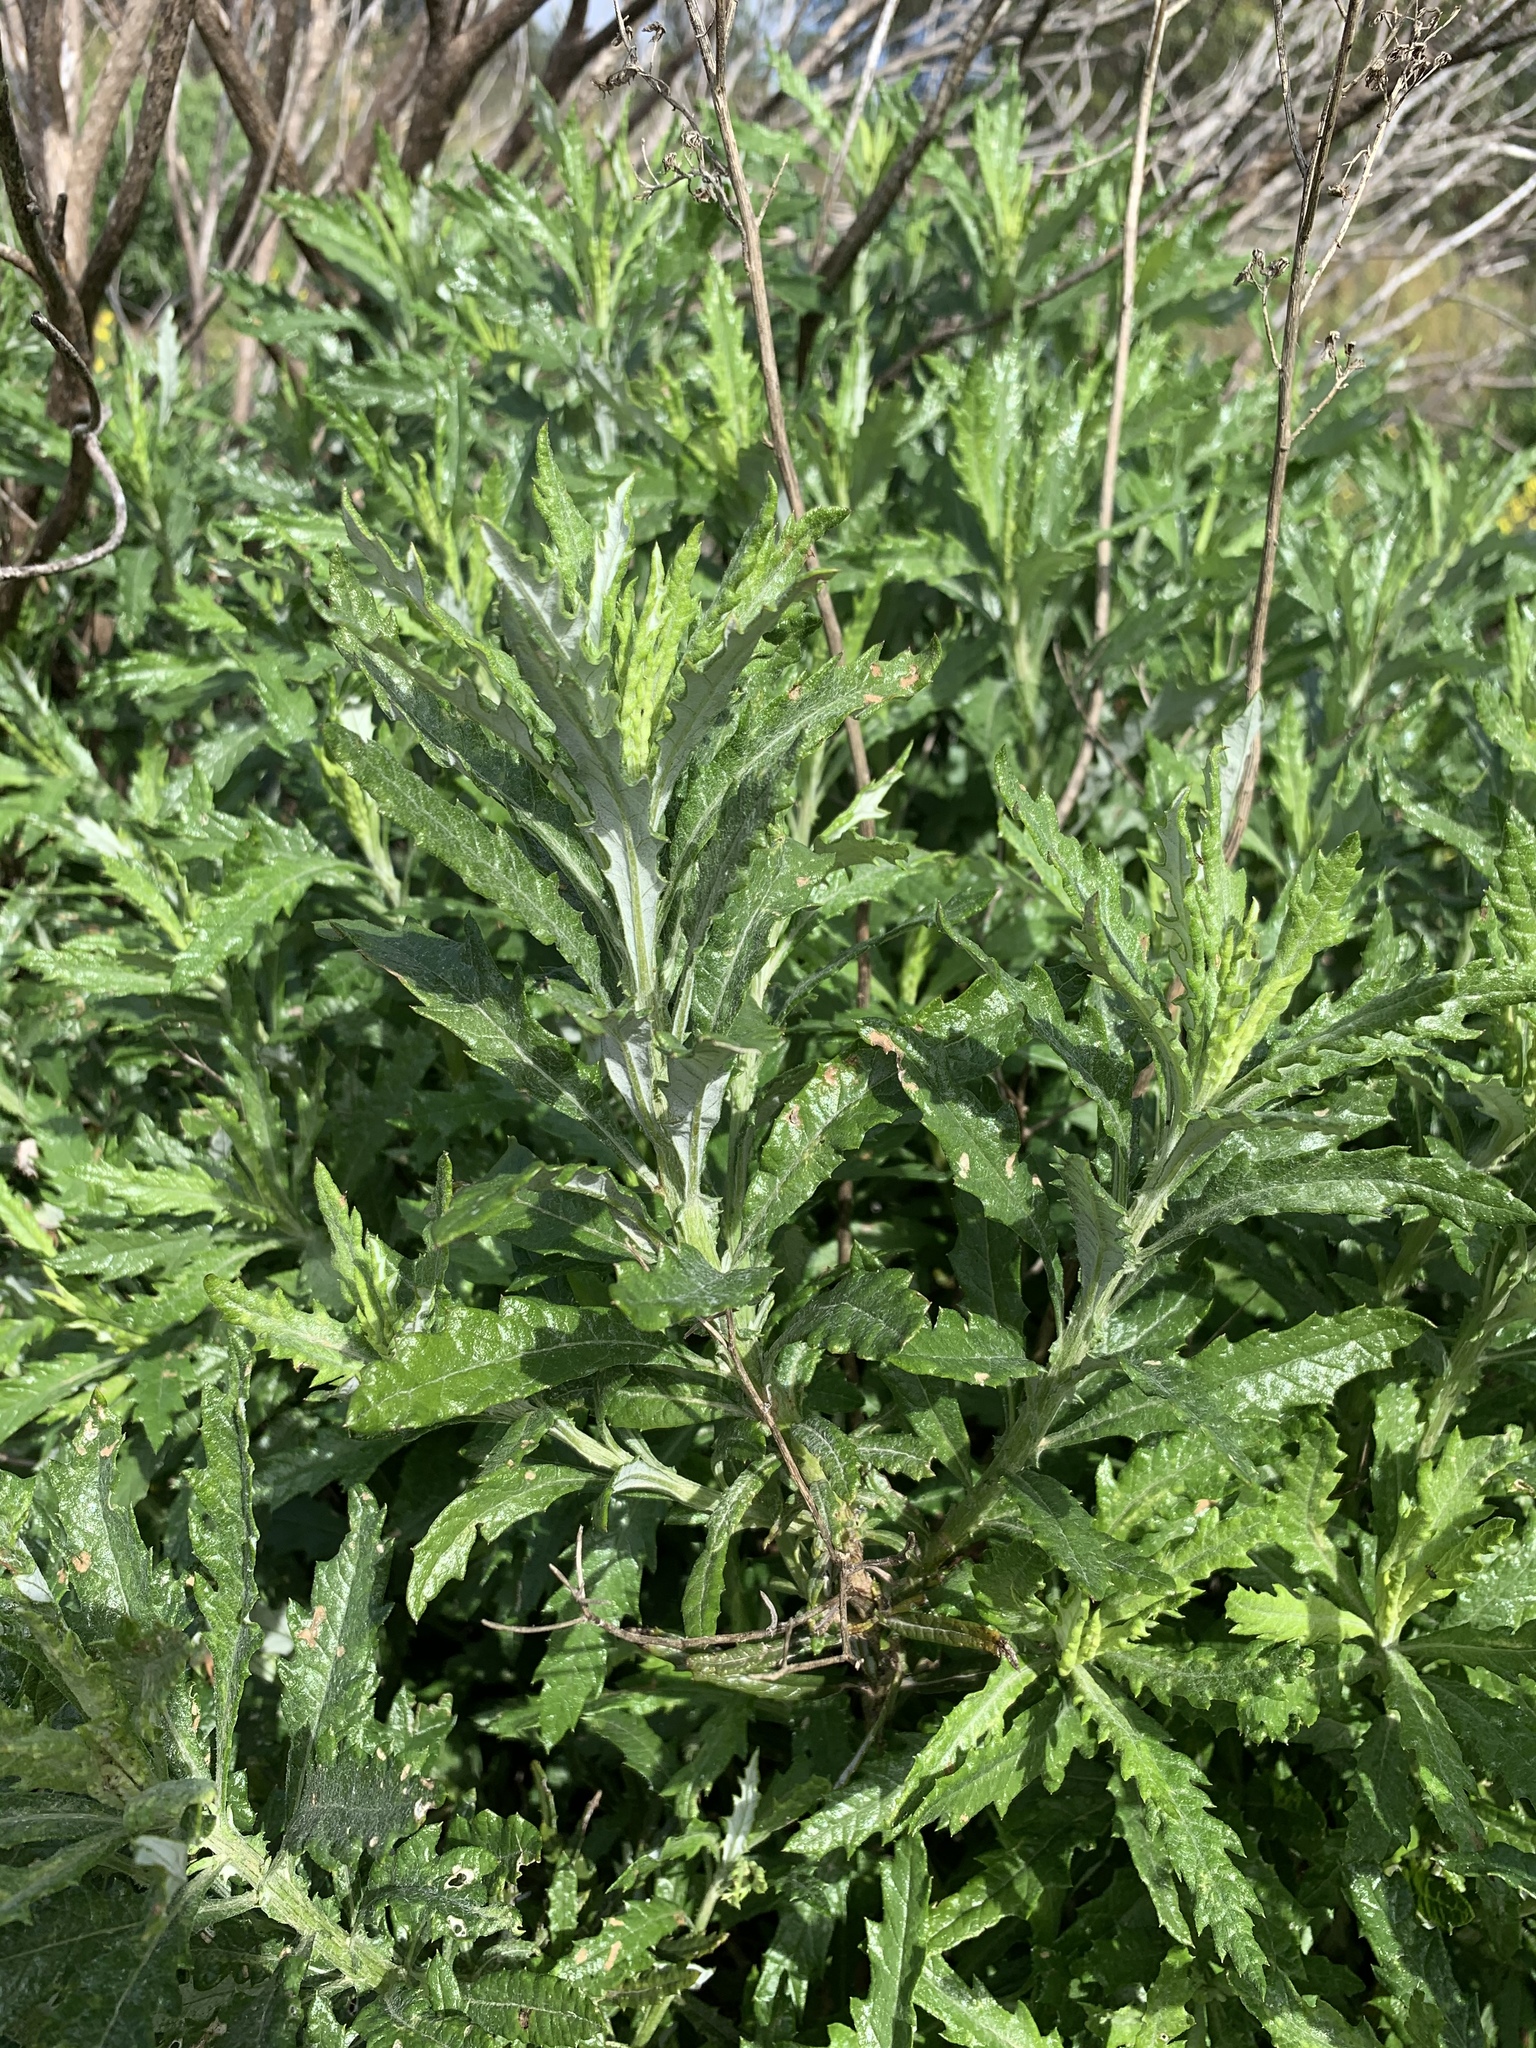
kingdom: Plantae
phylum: Tracheophyta
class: Magnoliopsida
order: Asterales
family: Asteraceae
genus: Senecio
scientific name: Senecio pterophorus
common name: Shoddy ragwort
